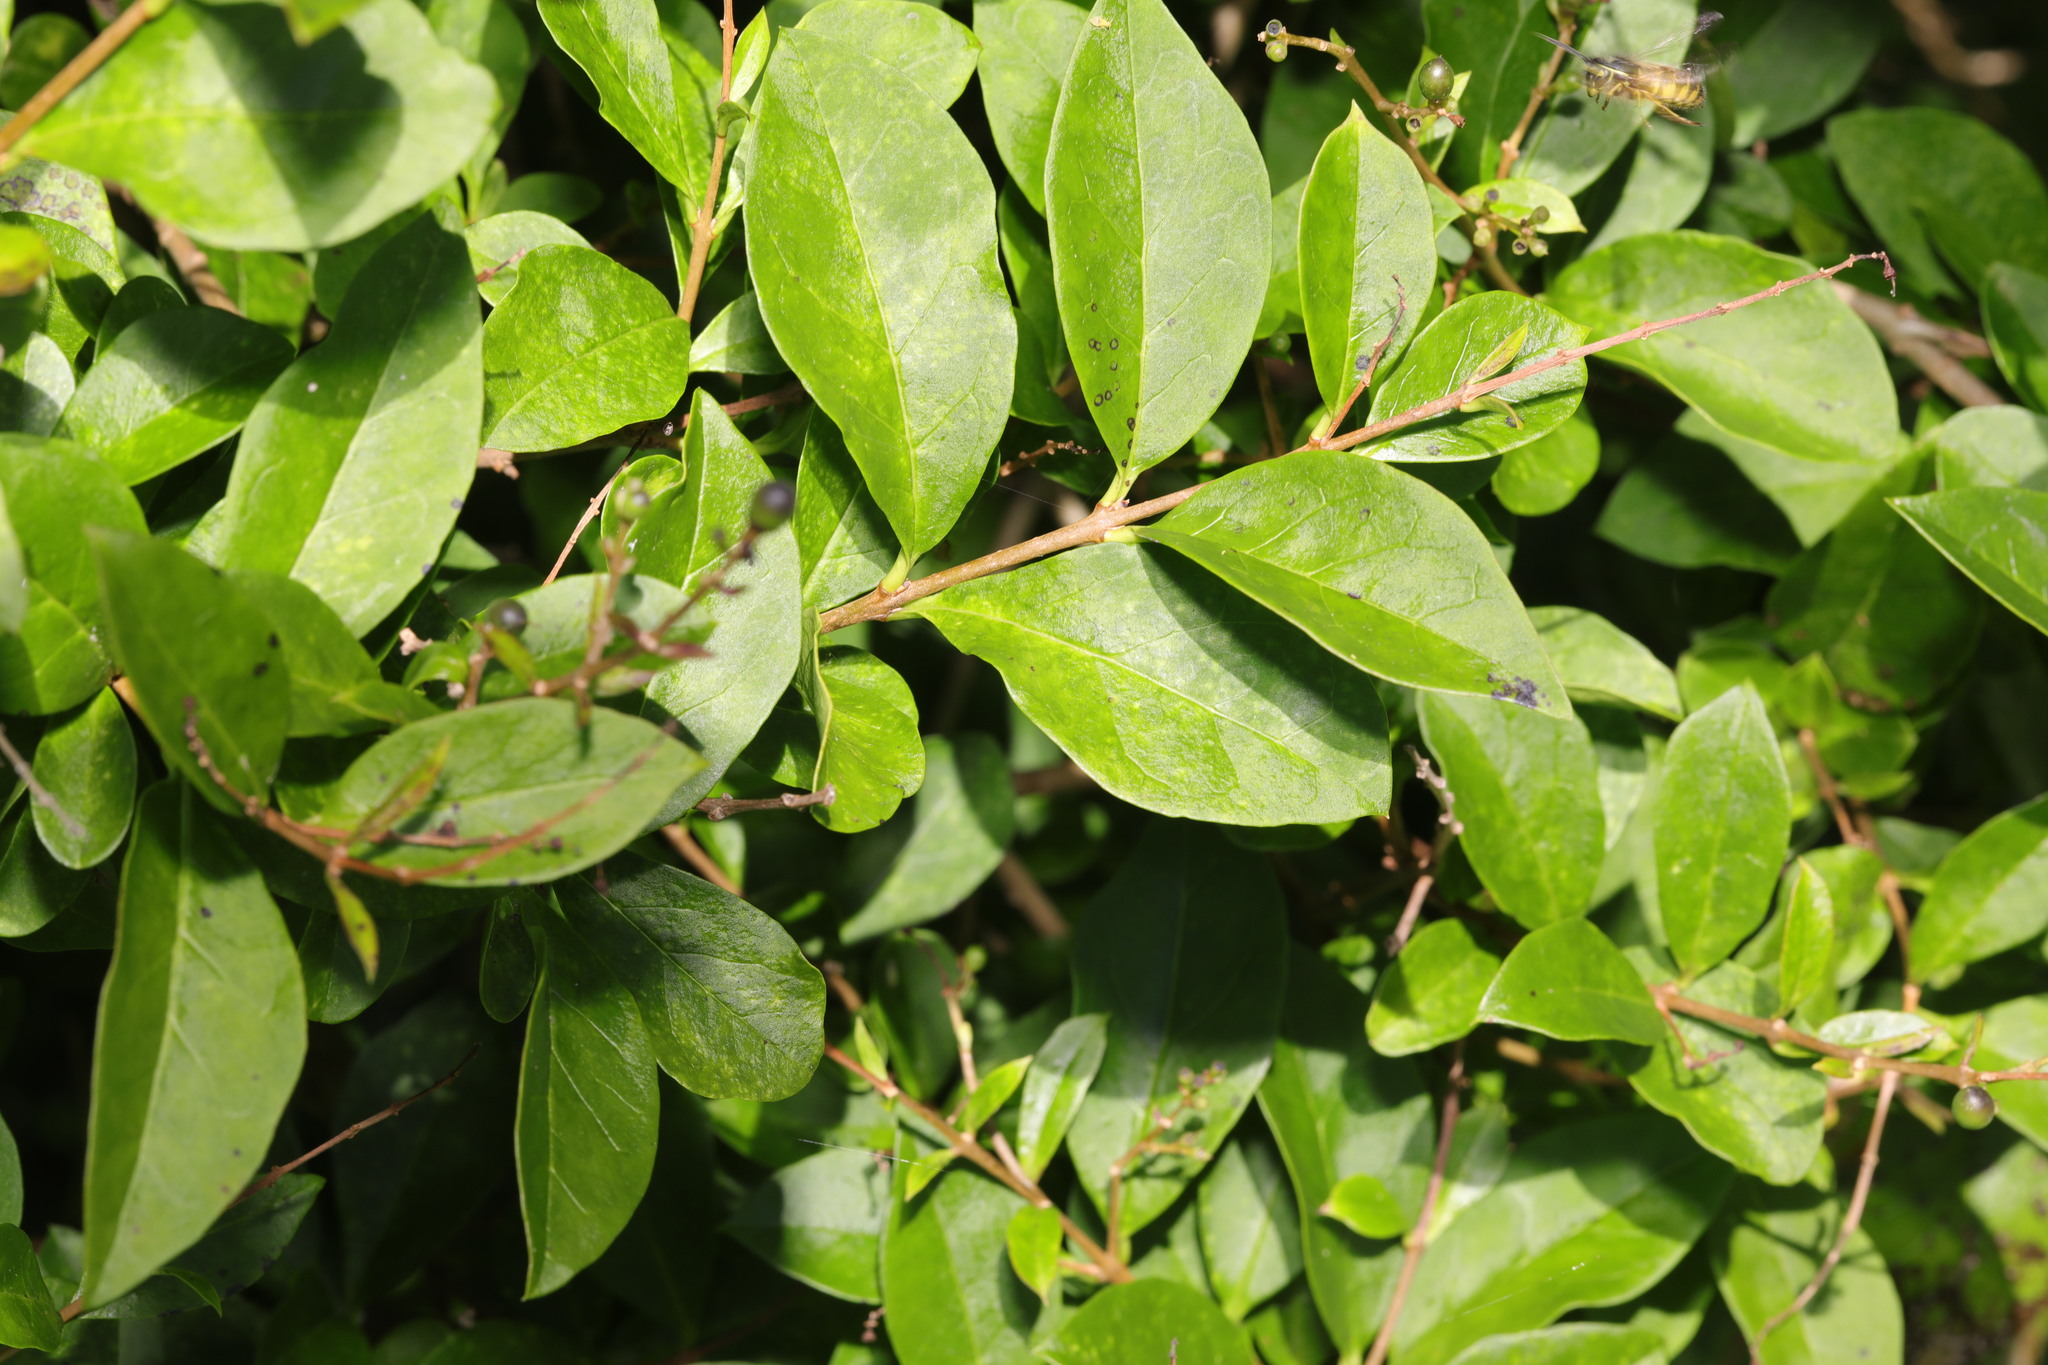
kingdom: Plantae
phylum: Tracheophyta
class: Magnoliopsida
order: Lamiales
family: Oleaceae
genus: Ligustrum
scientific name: Ligustrum ovalifolium
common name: California privet
